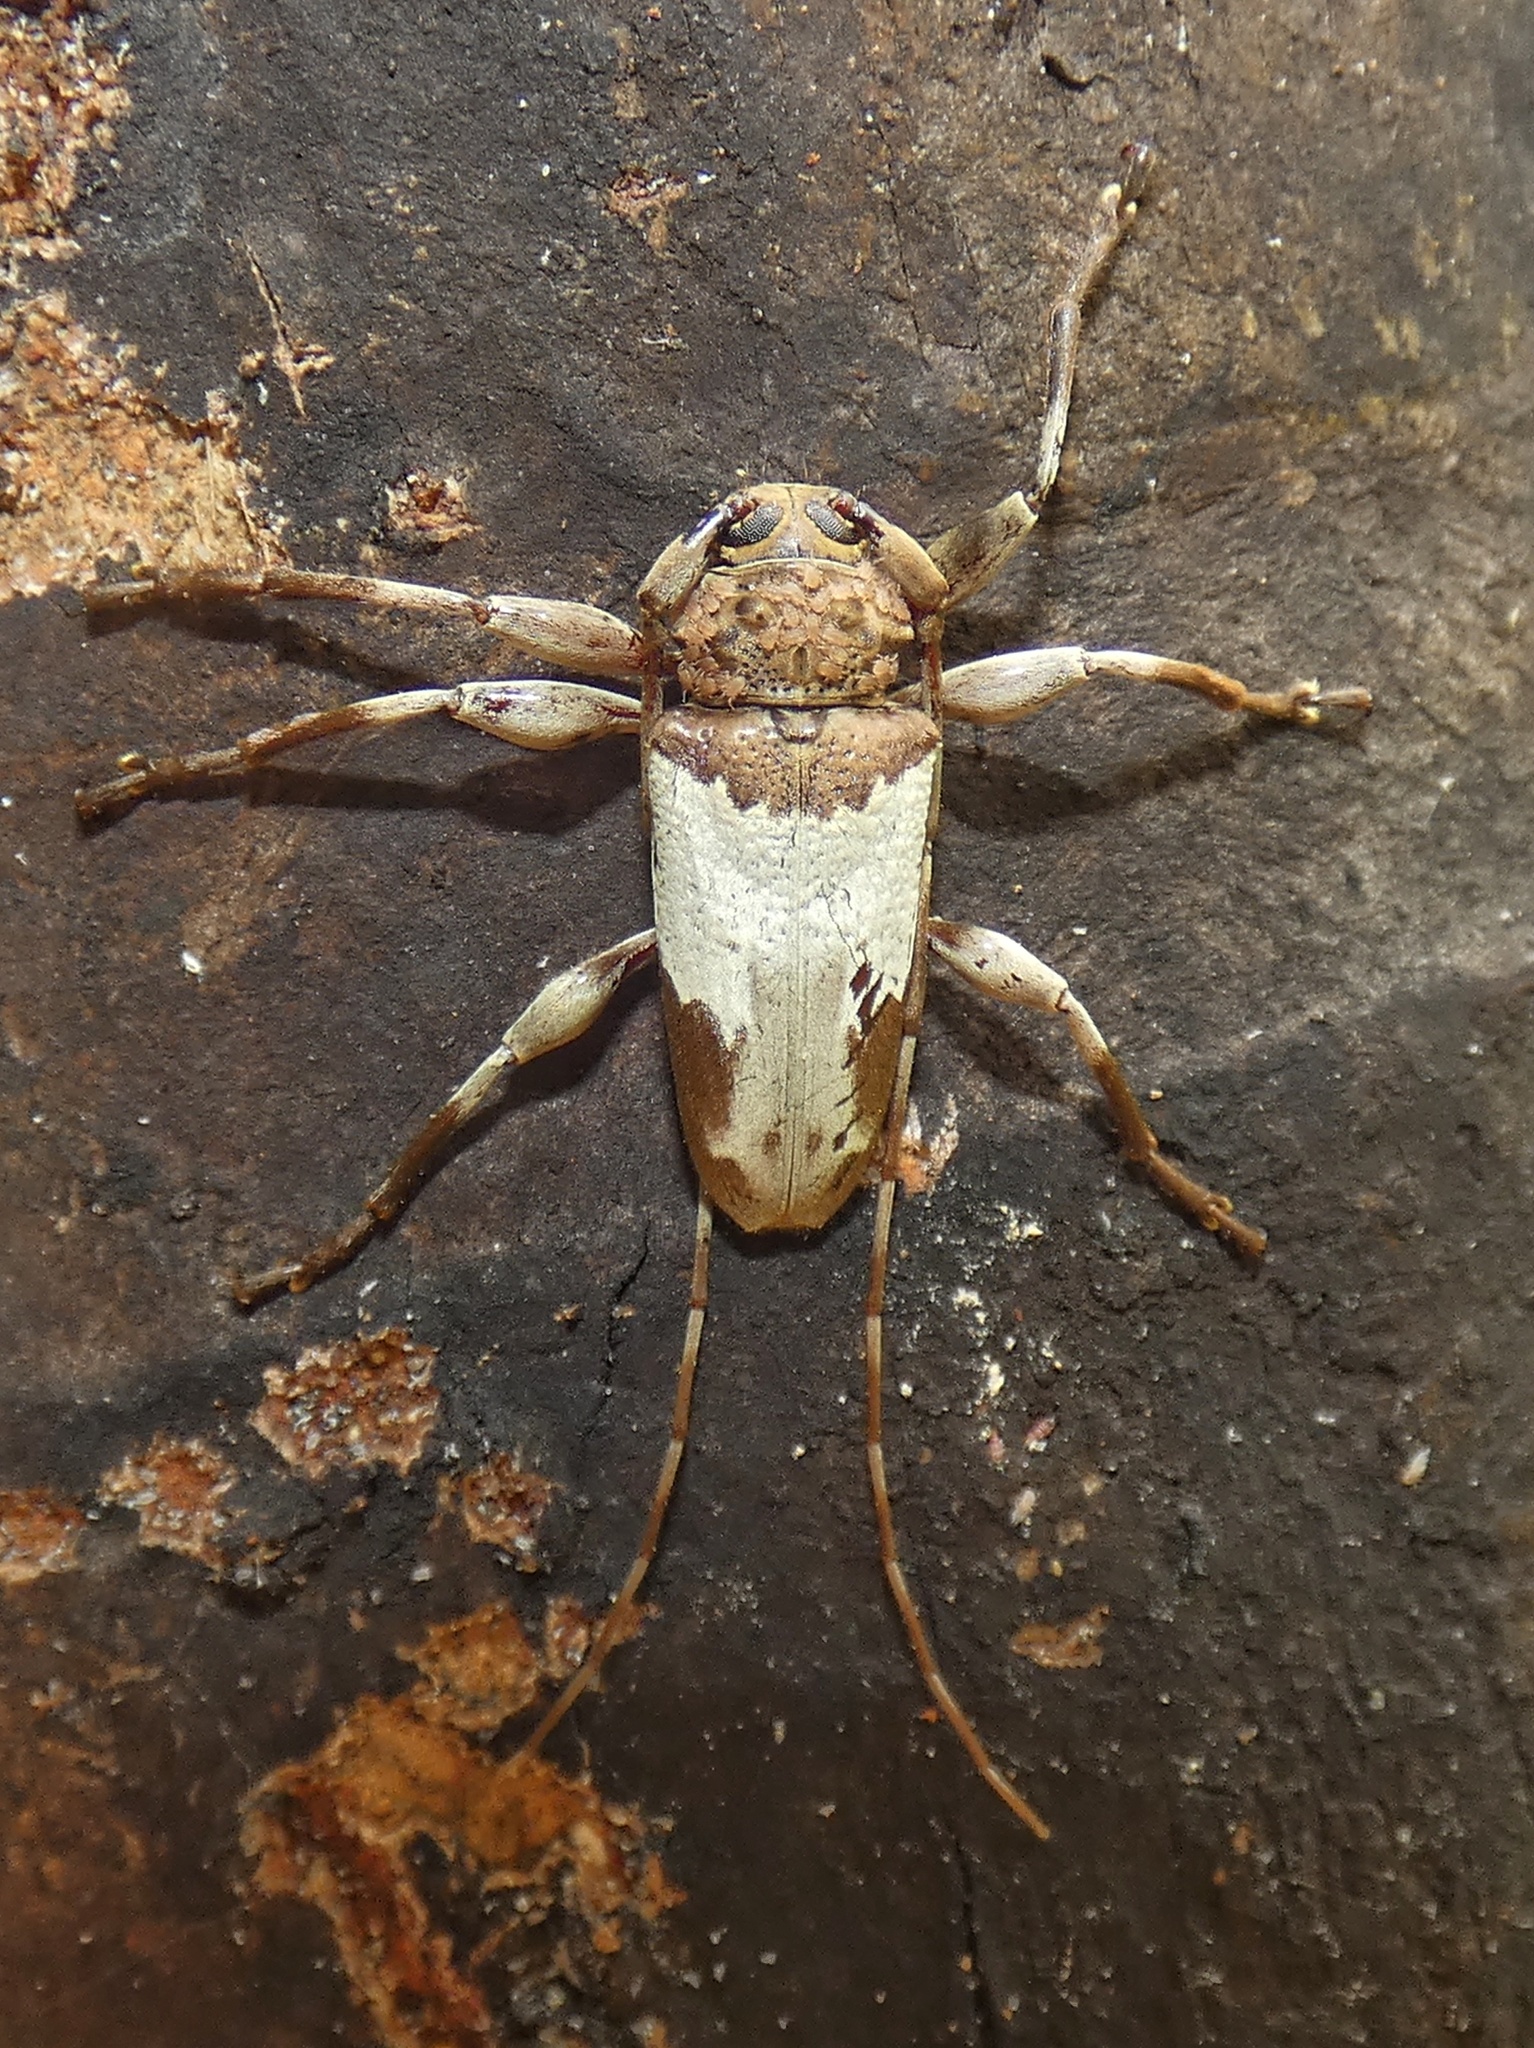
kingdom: Animalia
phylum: Arthropoda
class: Insecta
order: Coleoptera
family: Cerambycidae
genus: Oreodera
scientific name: Oreodera canotogata
